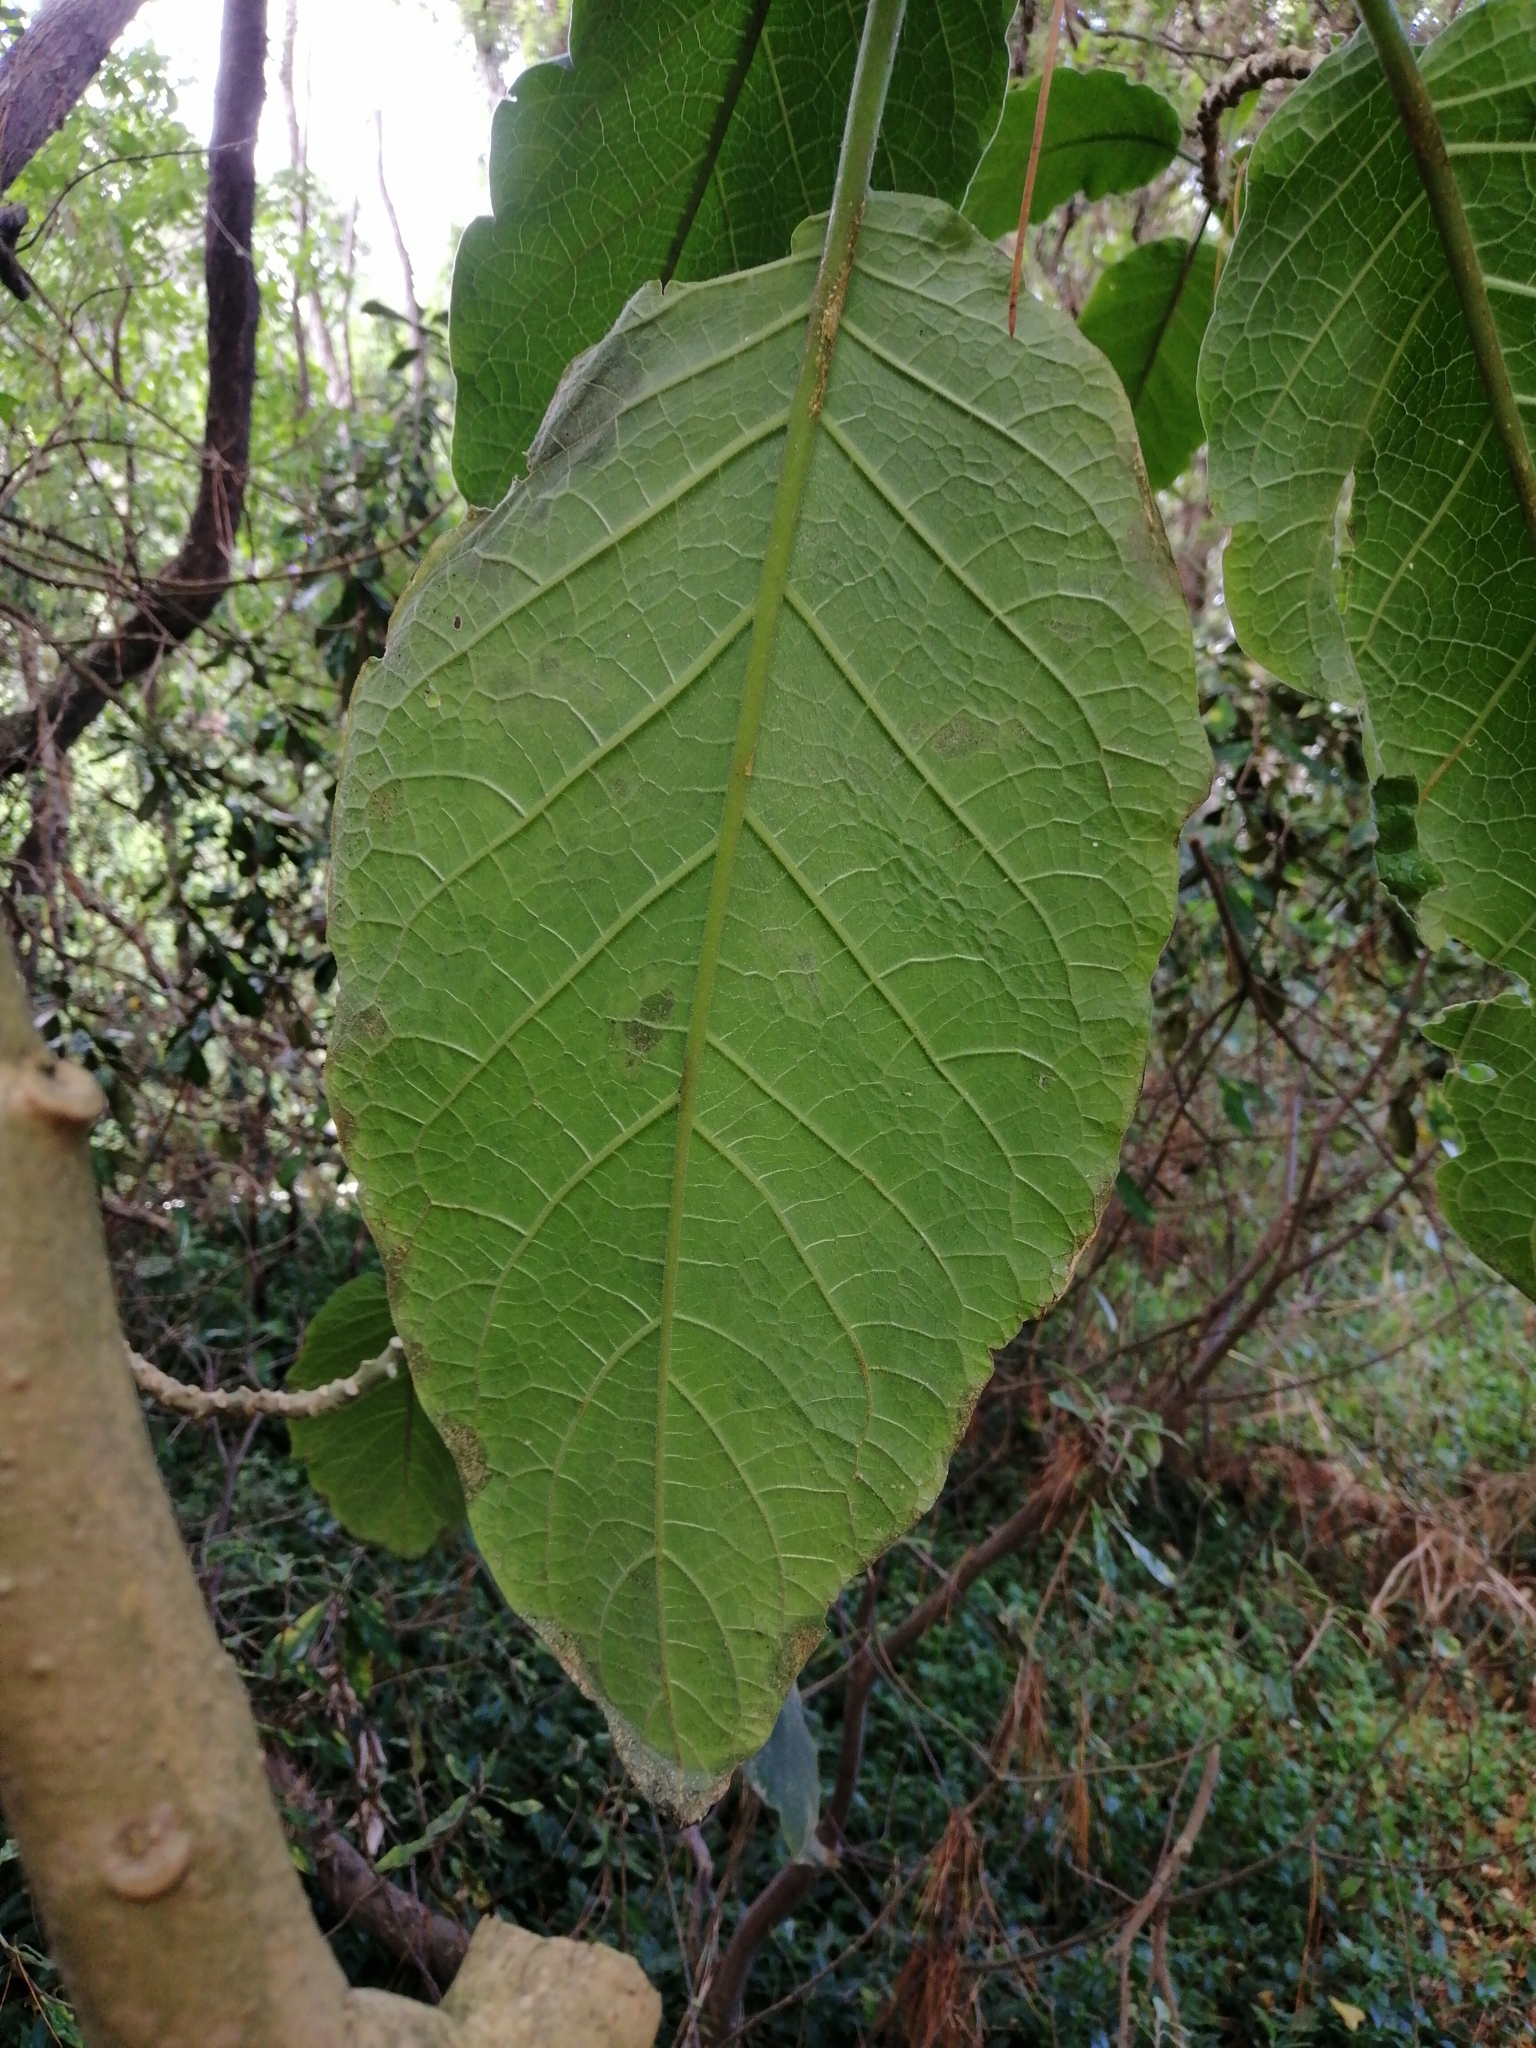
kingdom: Plantae
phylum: Tracheophyta
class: Magnoliopsida
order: Solanales
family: Solanaceae
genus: Brugmansia
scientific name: Brugmansia arborea
